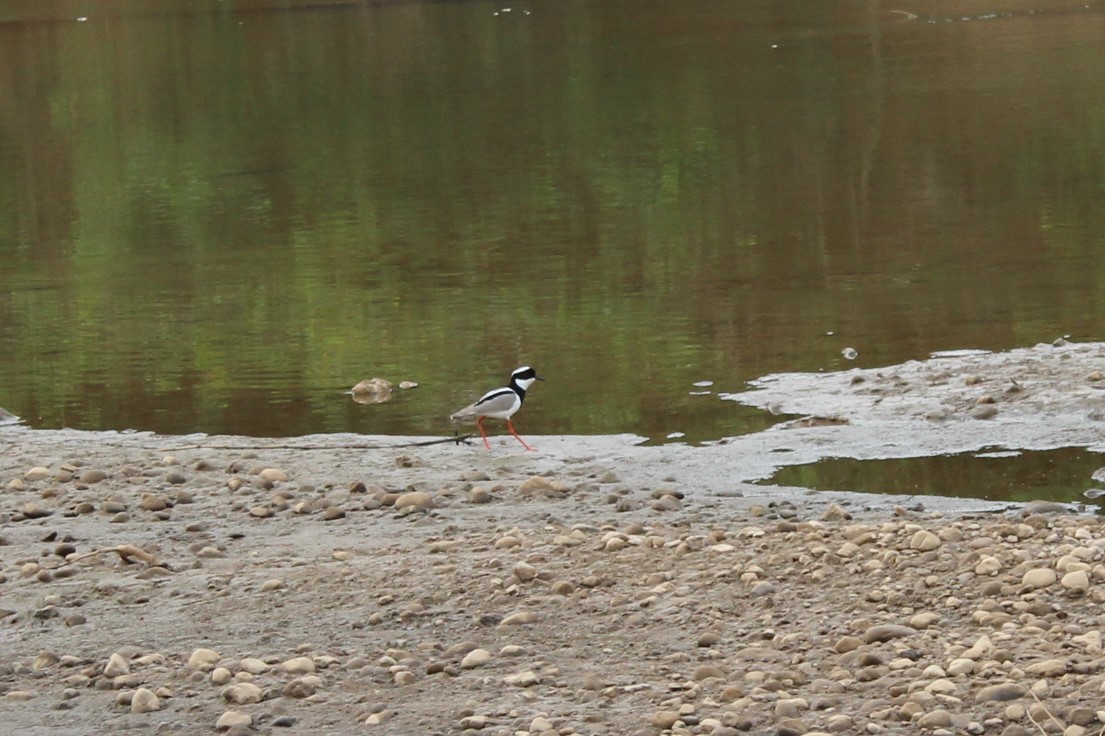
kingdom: Animalia
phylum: Chordata
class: Aves
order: Charadriiformes
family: Charadriidae
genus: Hoploxypterus
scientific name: Hoploxypterus cayanus
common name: Pied plover
